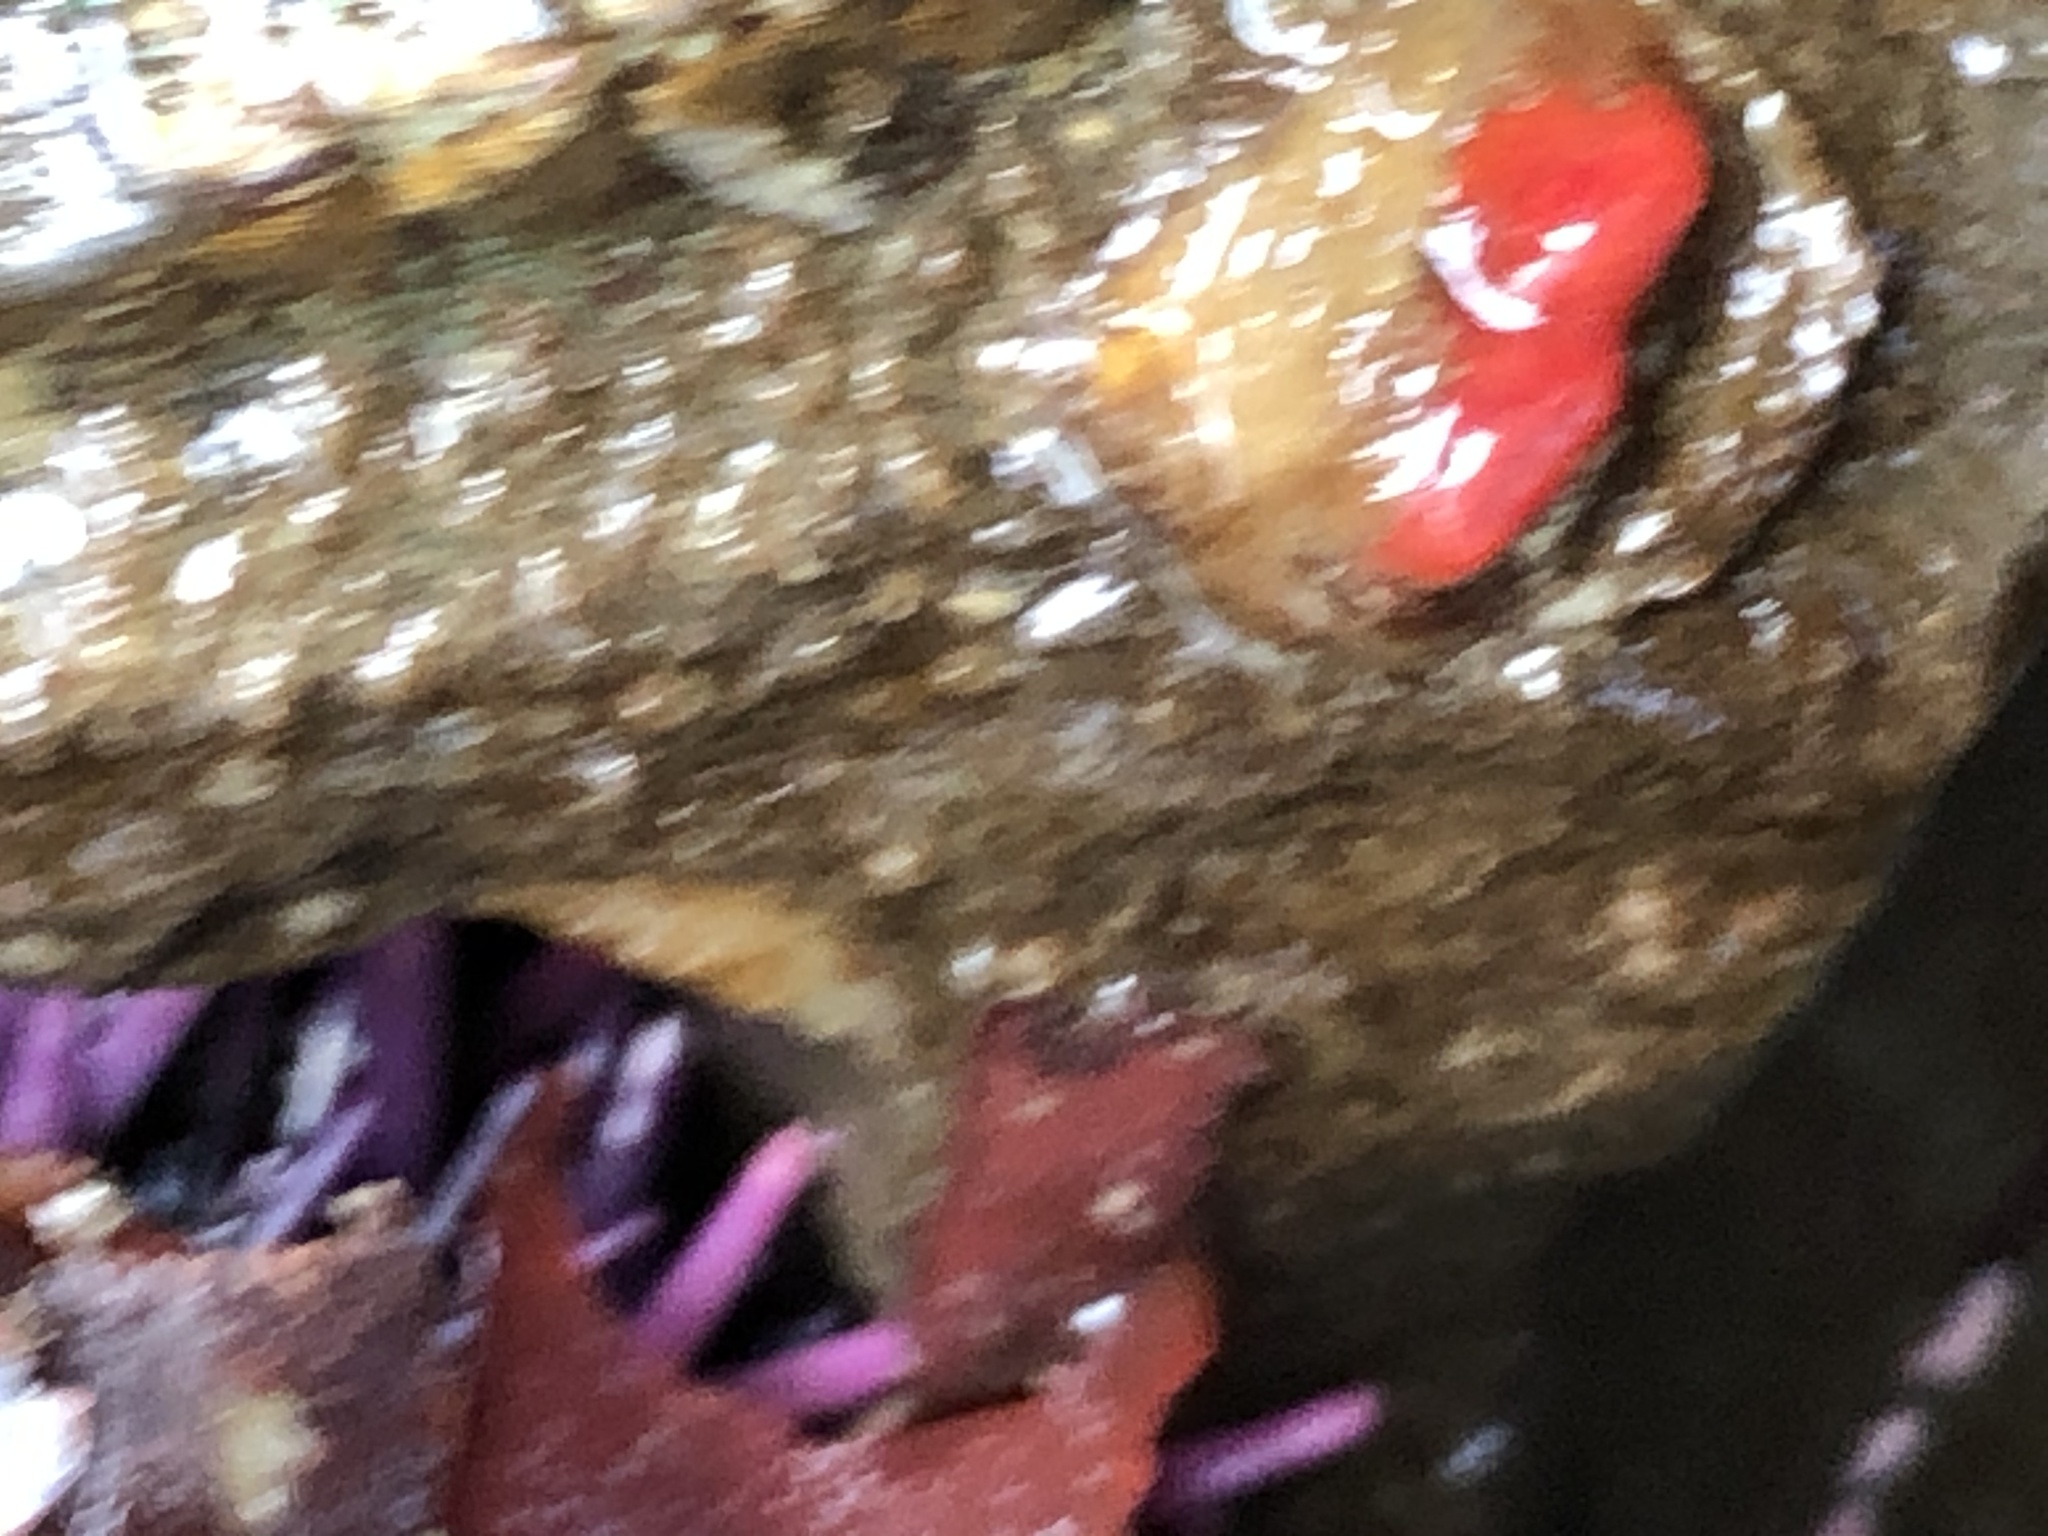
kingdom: Animalia
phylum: Mollusca
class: Bivalvia
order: Adapedonta
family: Hiatellidae
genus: Hiatella
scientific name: Hiatella arctica
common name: Arctic hiatella
